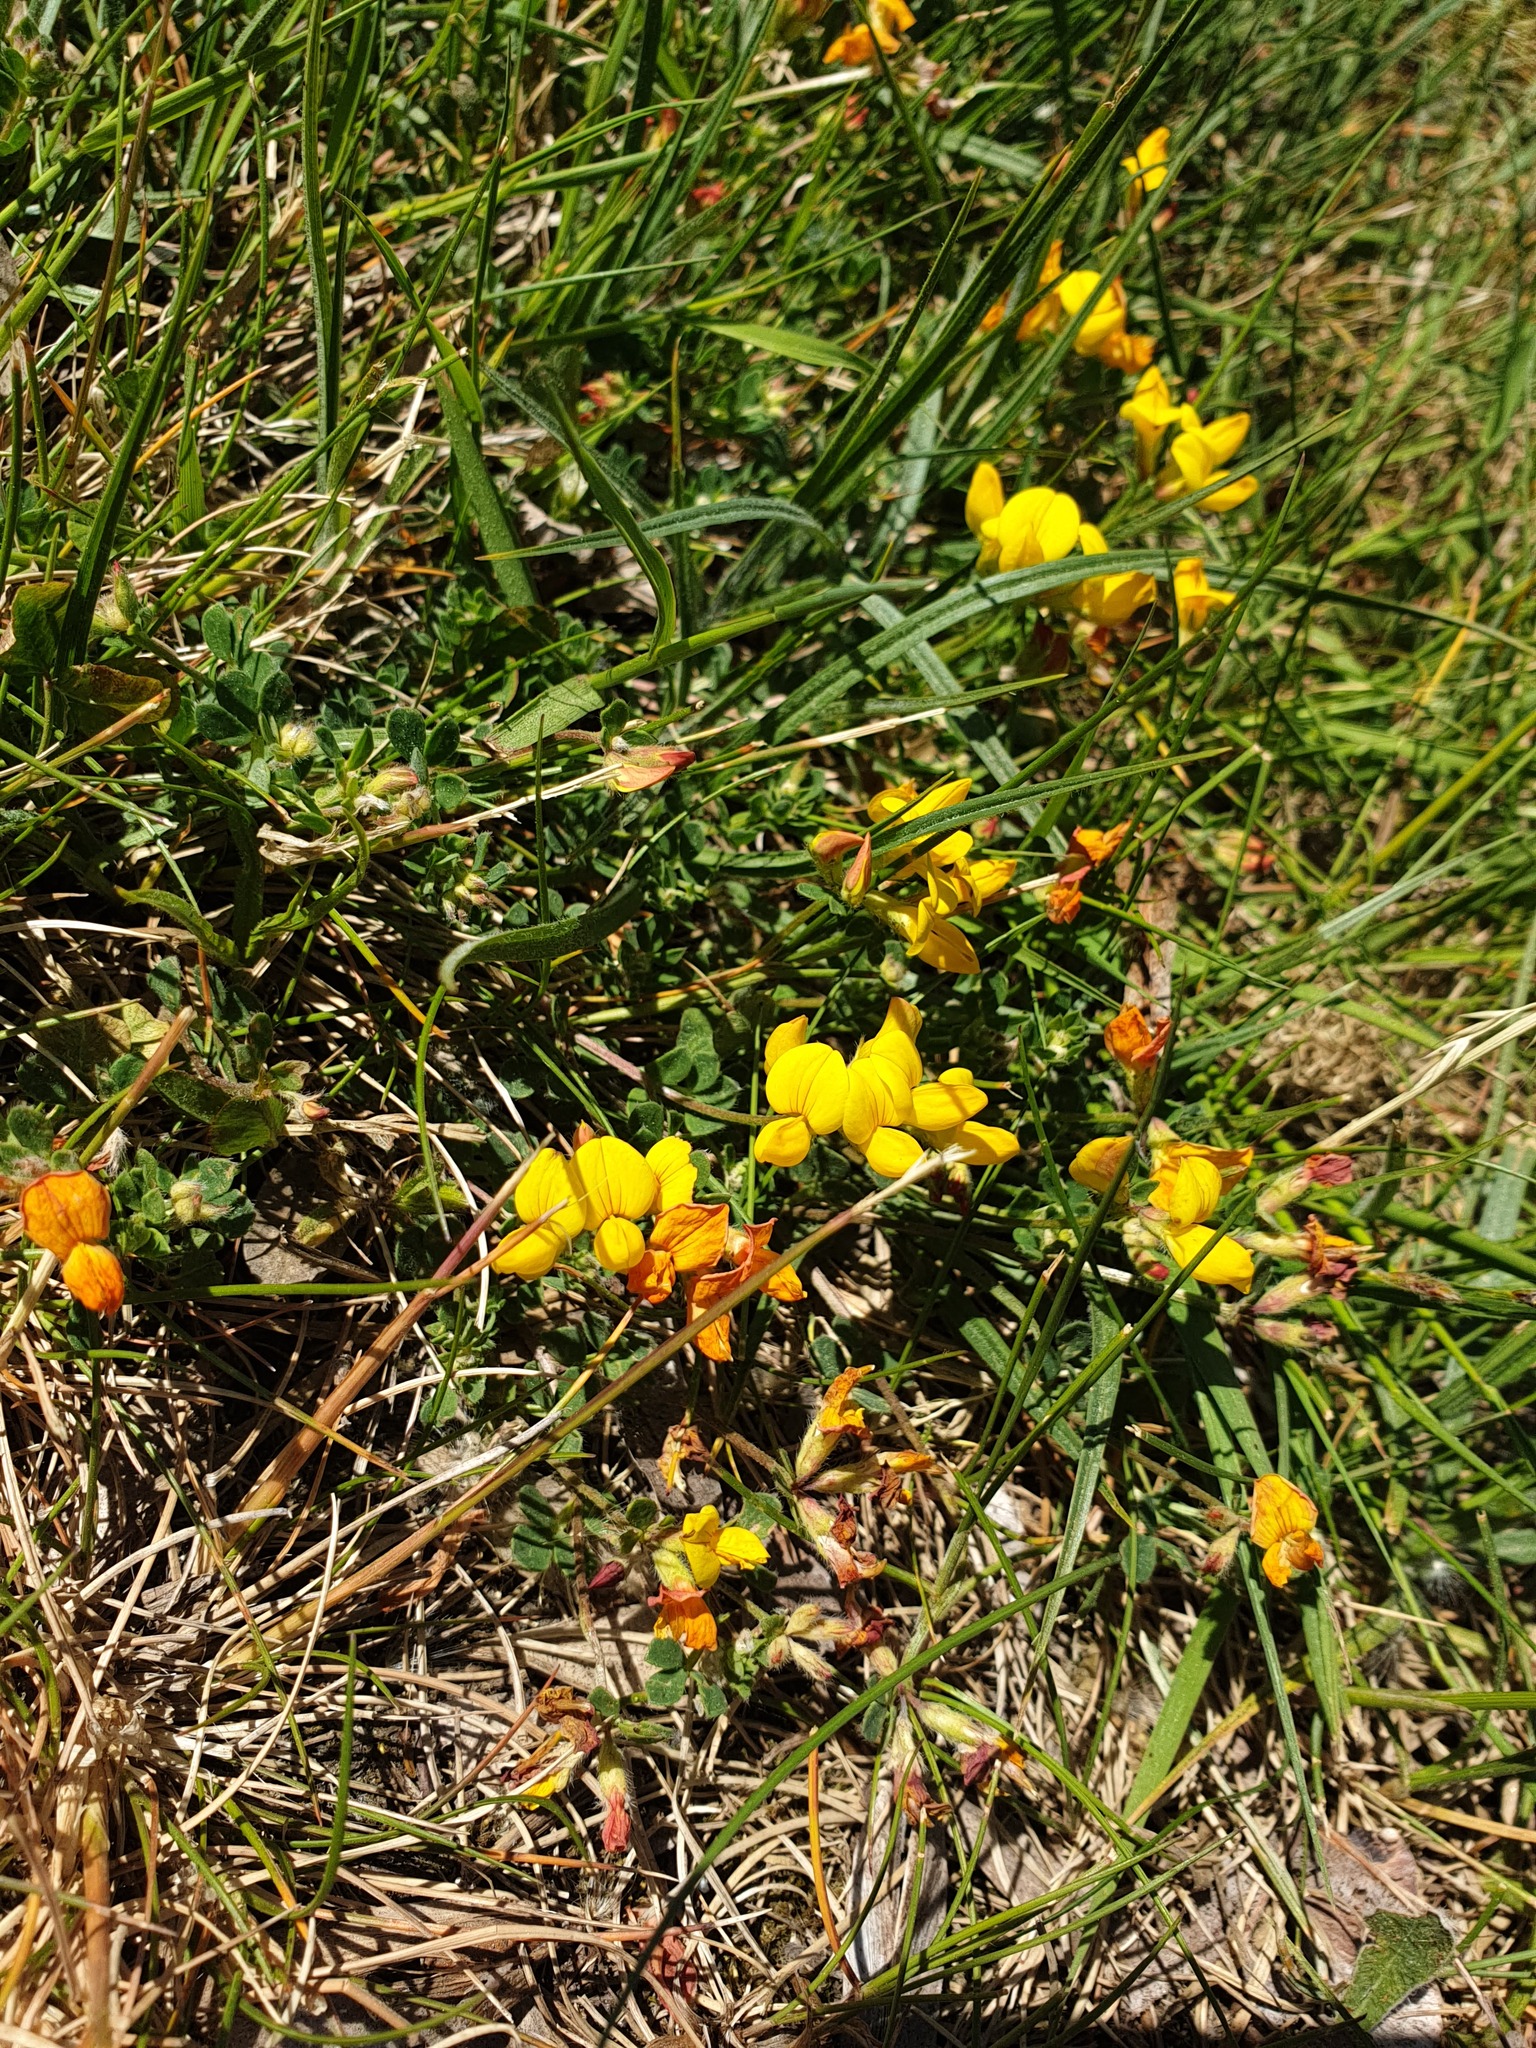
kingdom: Plantae
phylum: Tracheophyta
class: Magnoliopsida
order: Fabales
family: Fabaceae
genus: Lotus
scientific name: Lotus corniculatus
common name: Common bird's-foot-trefoil
